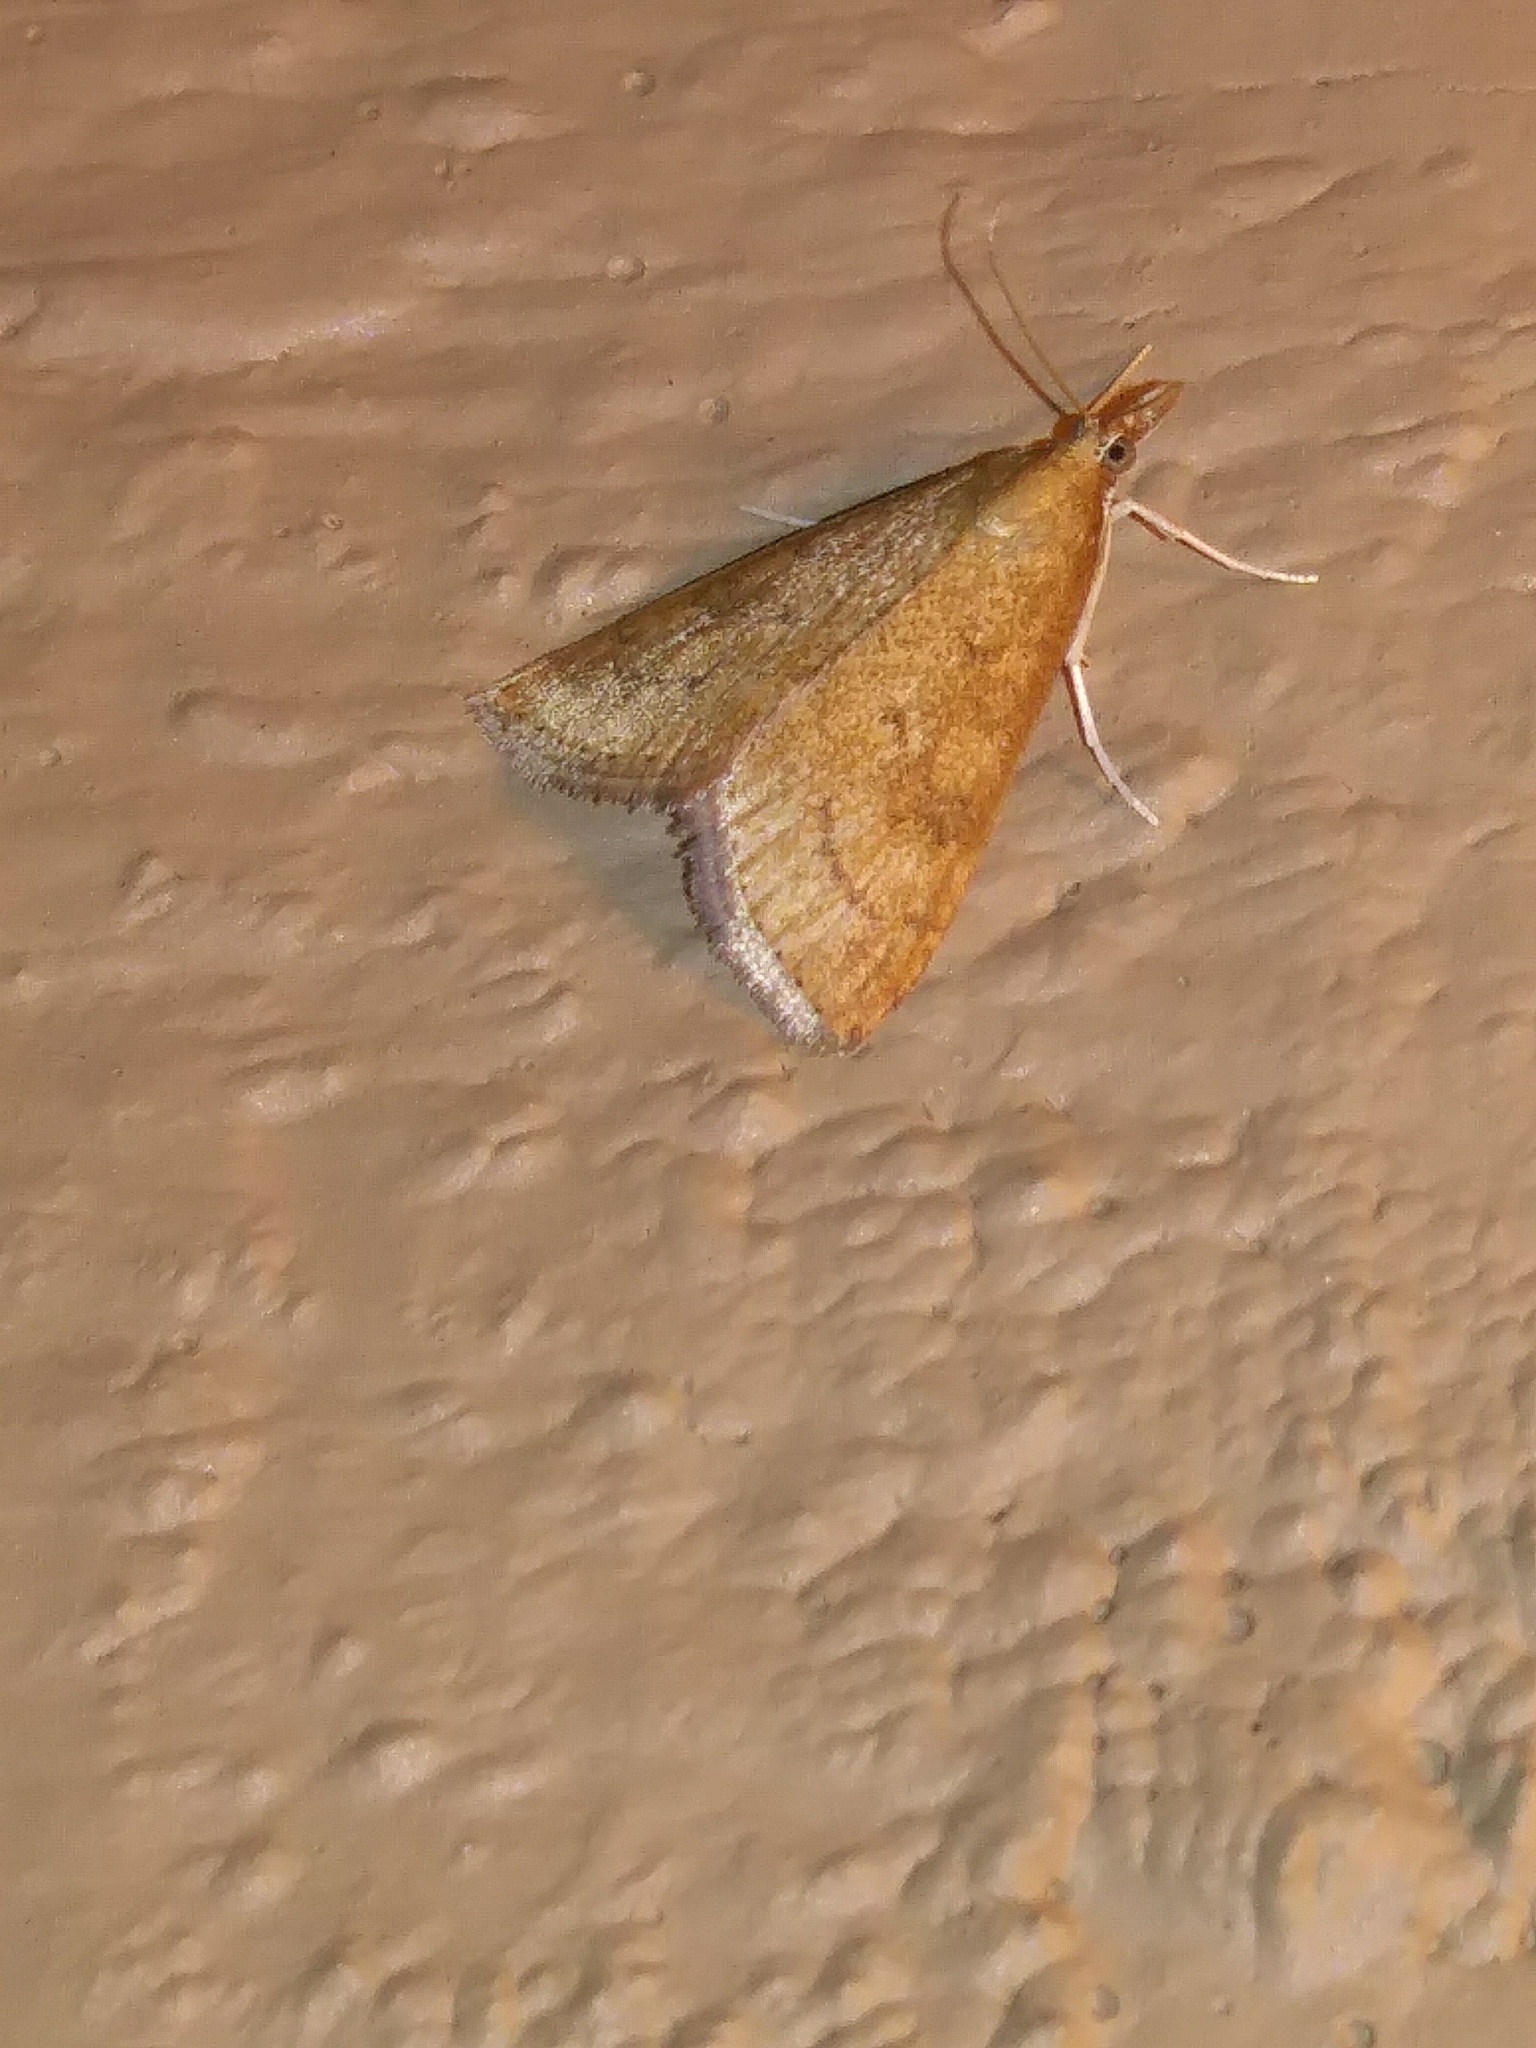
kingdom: Animalia
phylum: Arthropoda
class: Insecta
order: Lepidoptera
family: Crambidae
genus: Udea
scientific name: Udea rubigalis
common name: Celery leaftier moth
